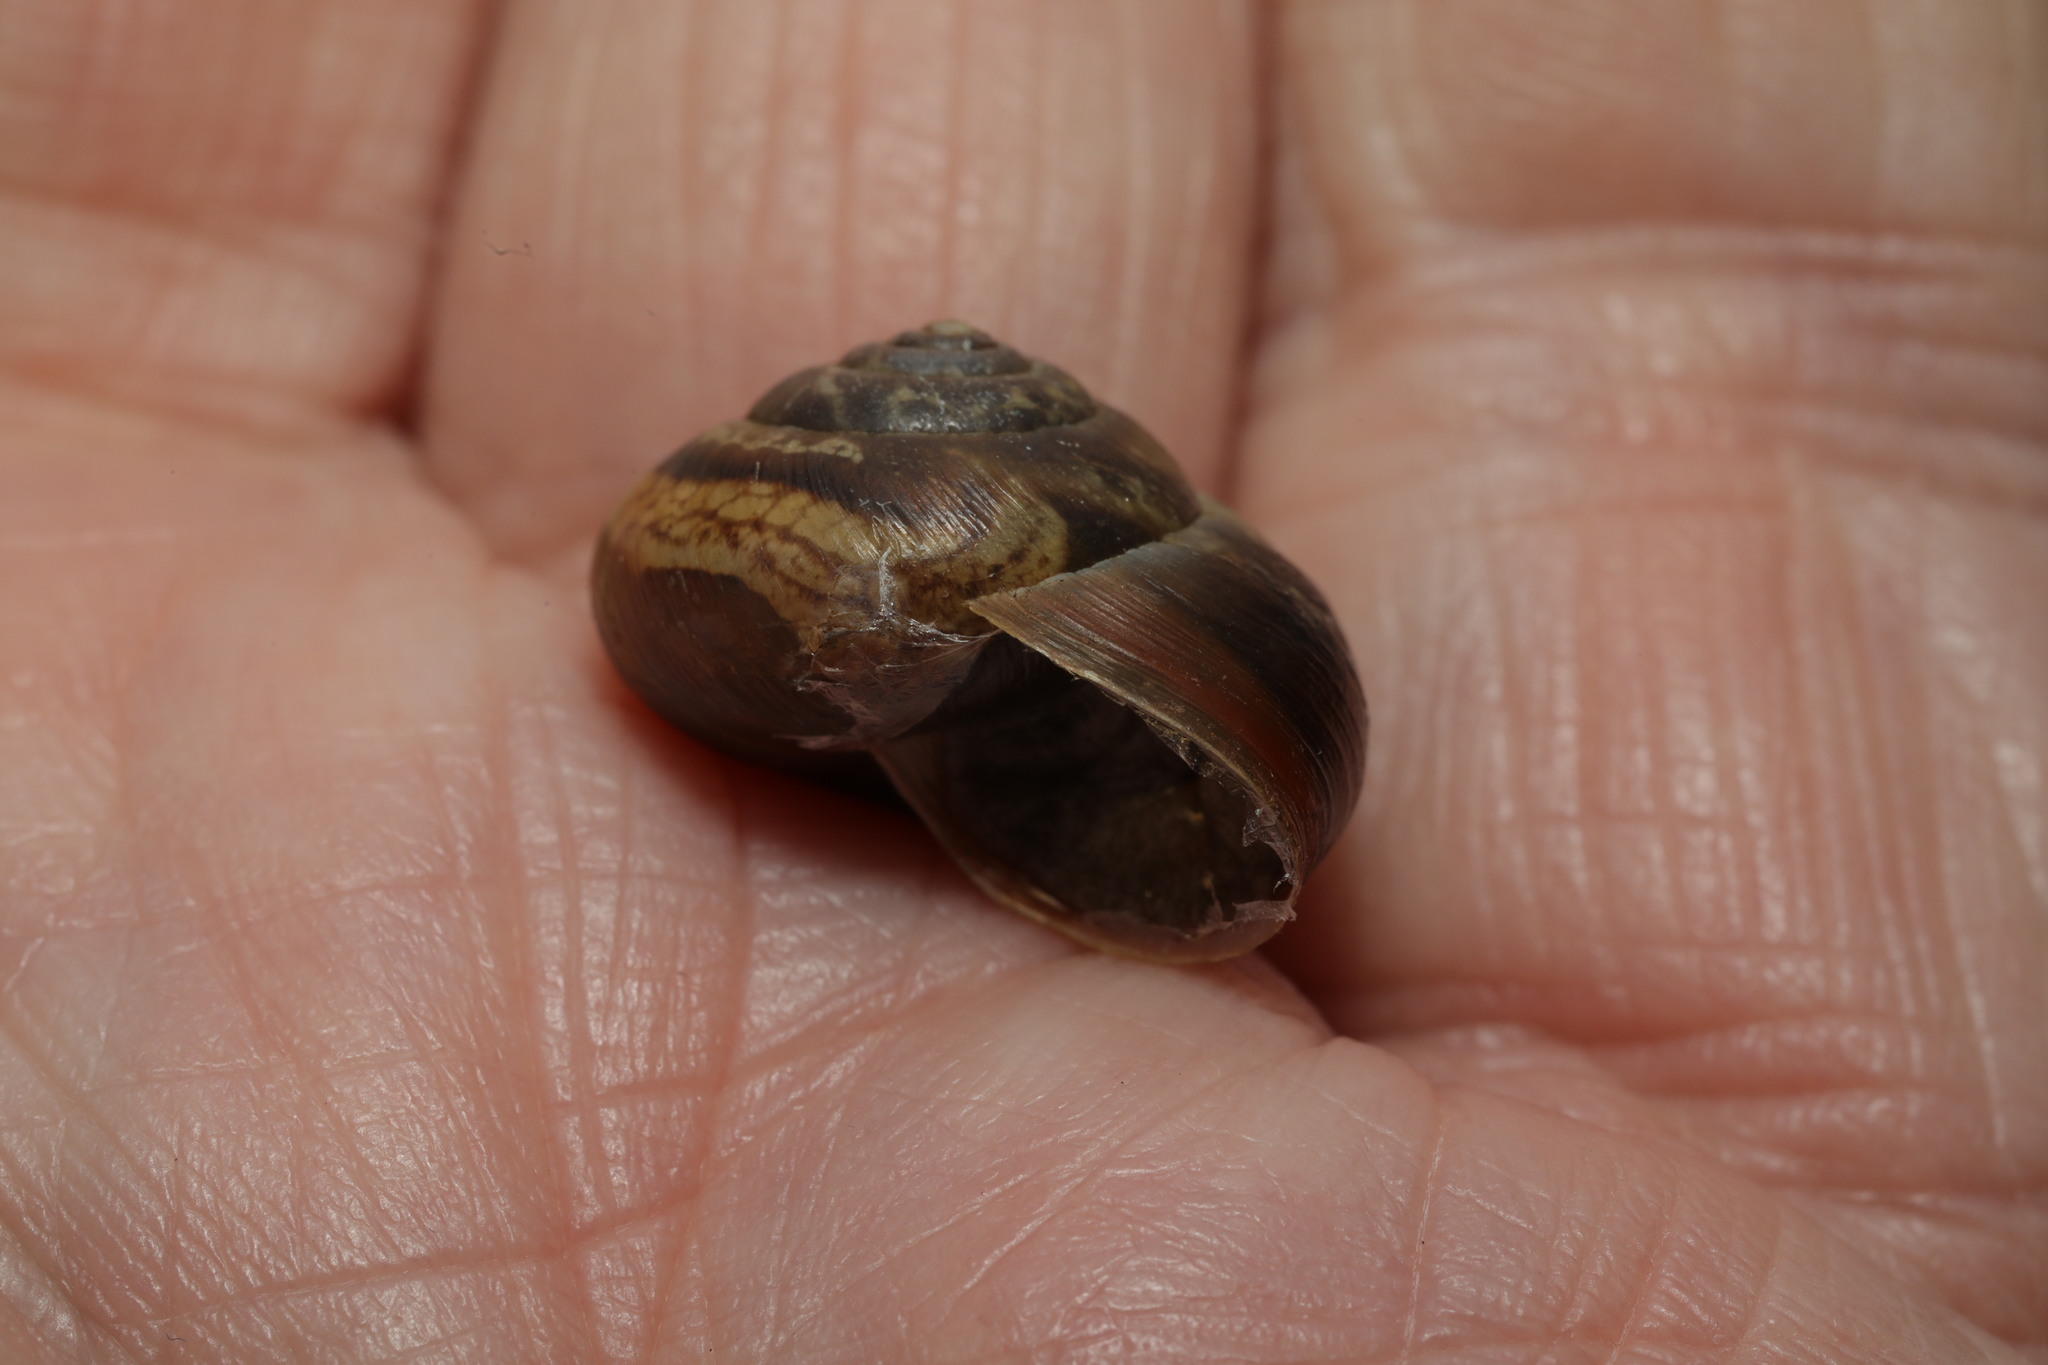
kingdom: Animalia
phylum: Mollusca
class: Gastropoda
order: Stylommatophora
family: Helicidae
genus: Arianta
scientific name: Arianta arbustorum
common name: Copse snail
